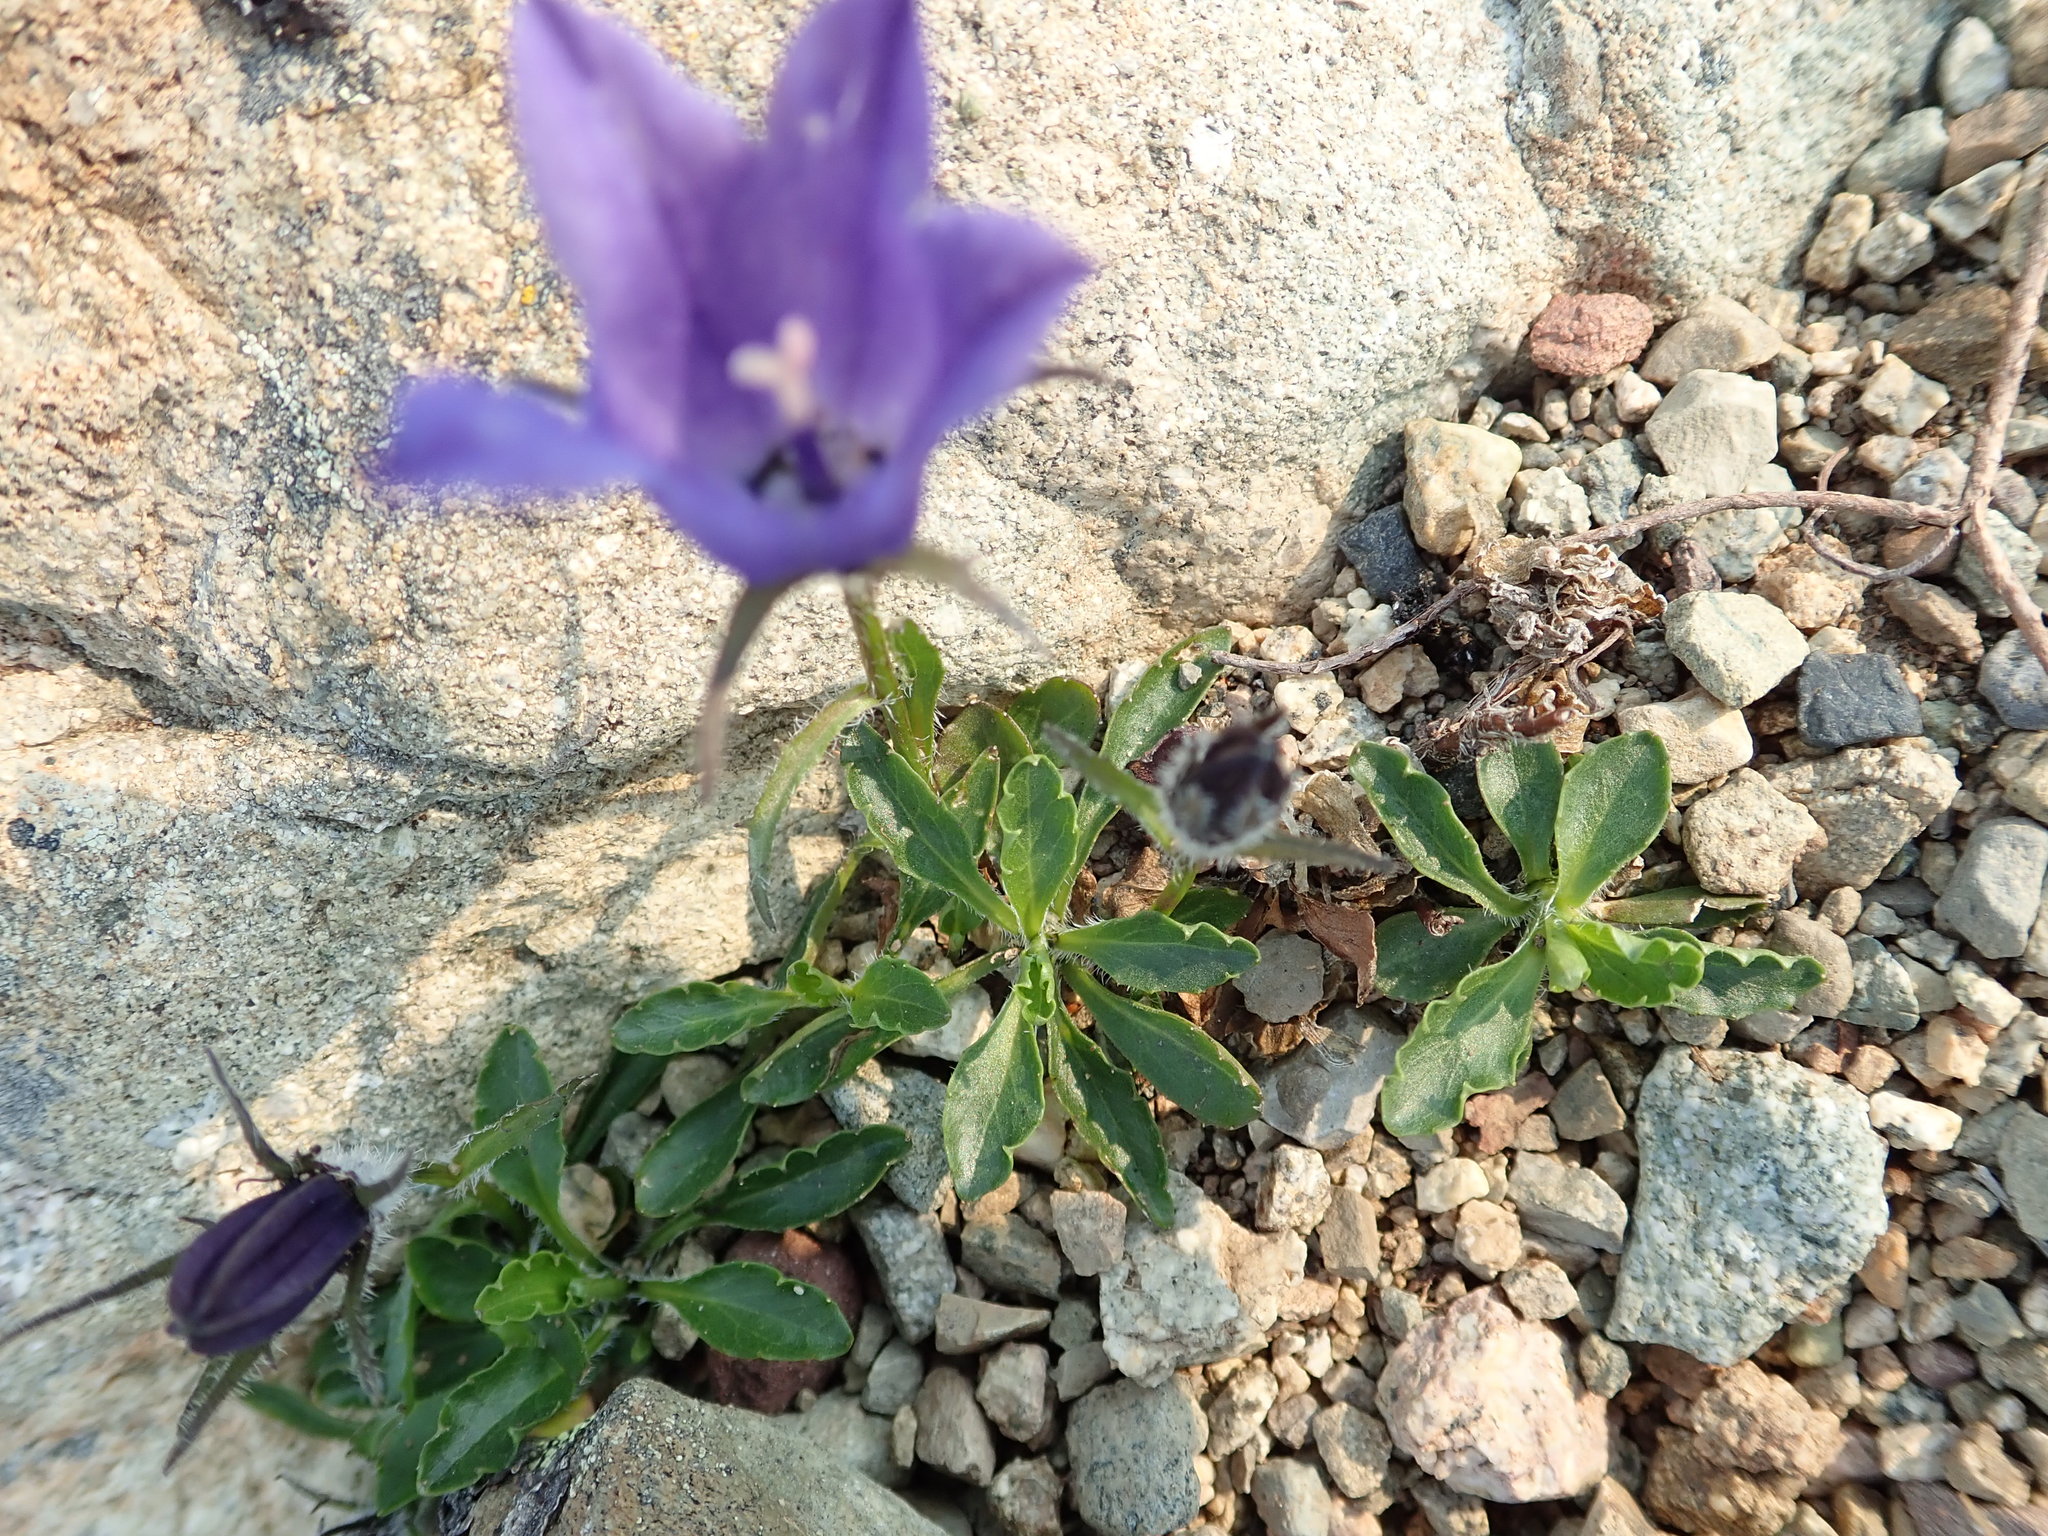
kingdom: Plantae
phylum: Tracheophyta
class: Magnoliopsida
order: Asterales
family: Campanulaceae
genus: Campanula
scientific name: Campanula lasiocarpa
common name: Mountain harebell
